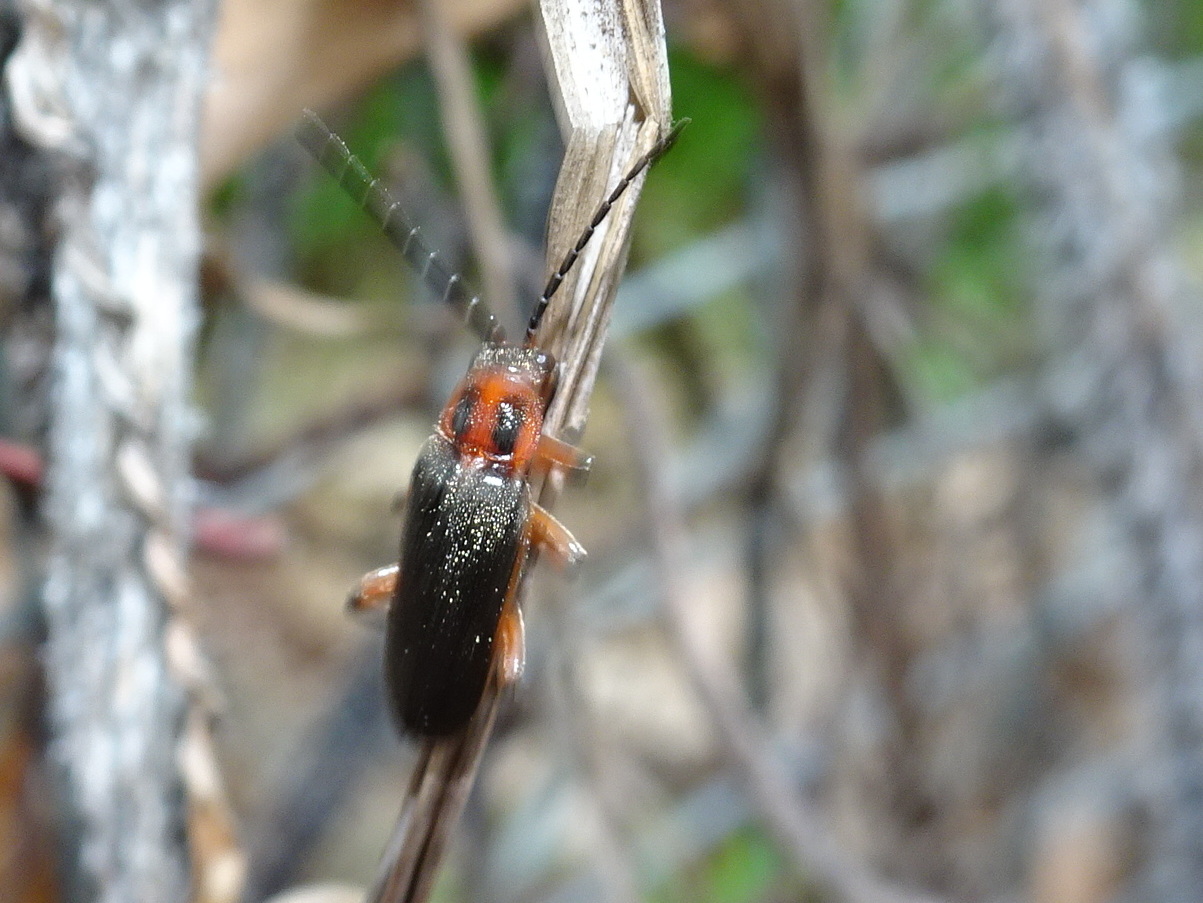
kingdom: Animalia
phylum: Arthropoda
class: Insecta
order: Coleoptera
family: Cantharidae
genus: Atalantycha
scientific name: Atalantycha bilineata
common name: Two-lined leatherwing
